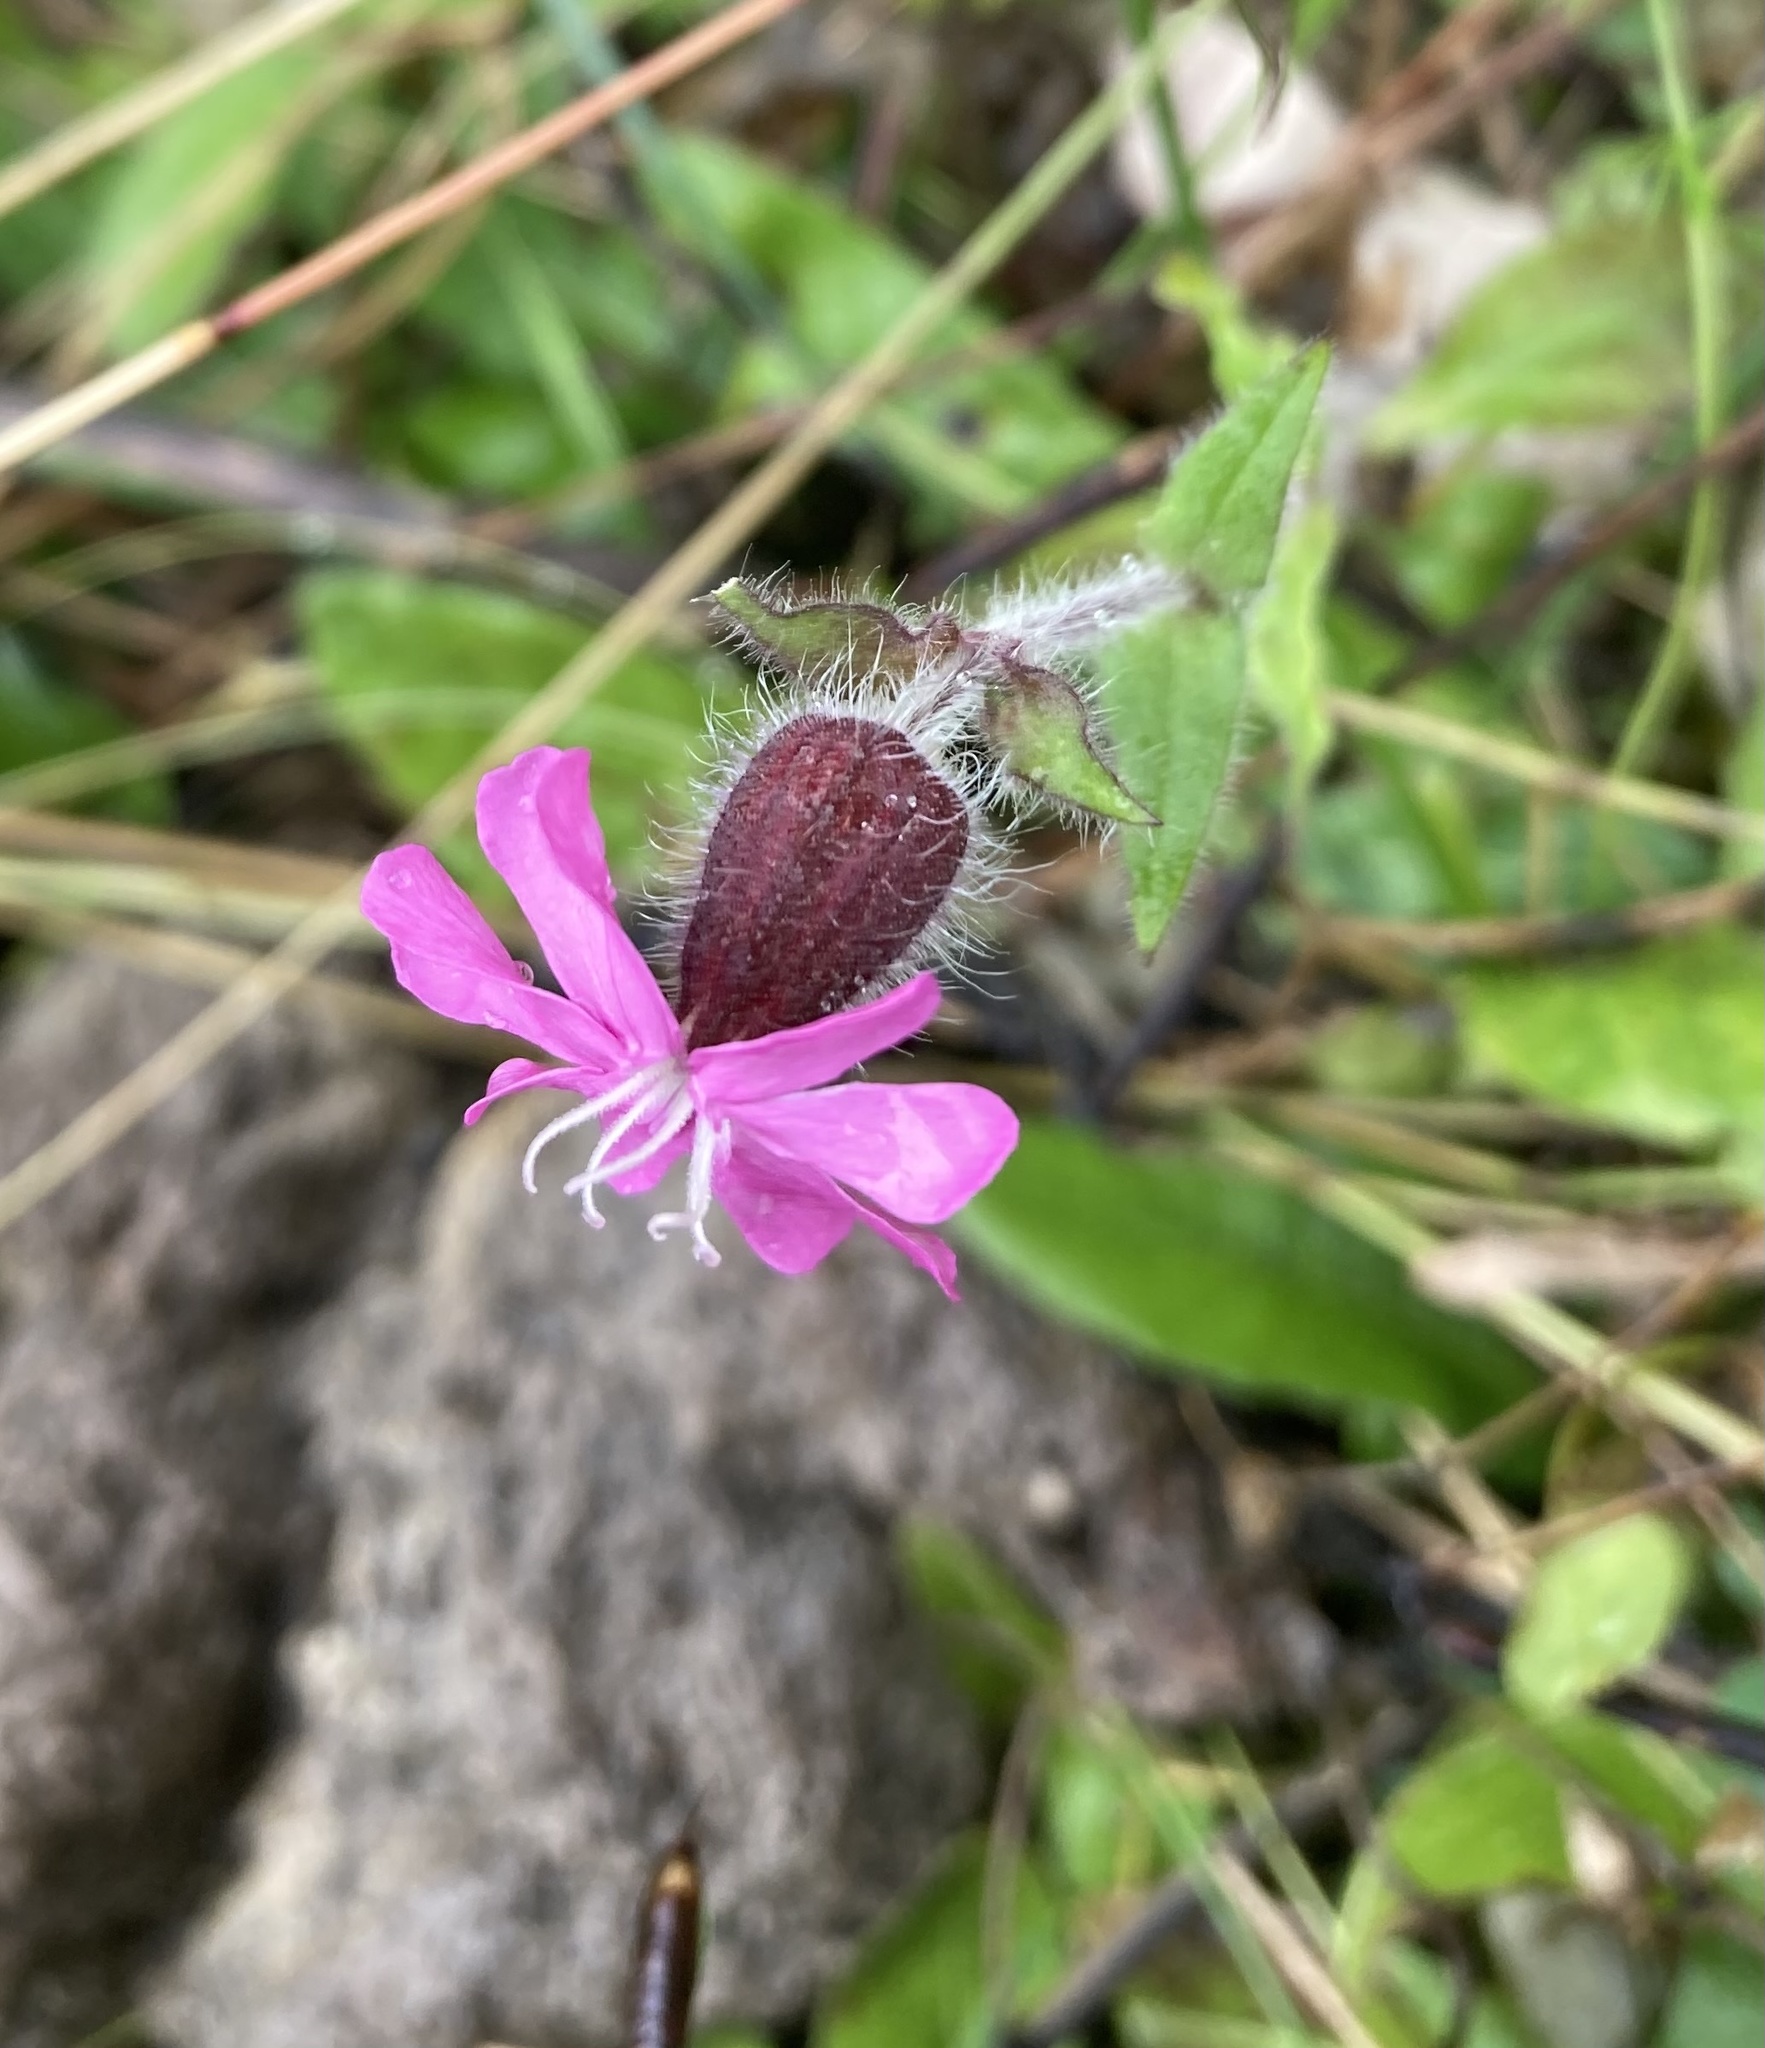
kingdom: Plantae
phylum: Tracheophyta
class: Magnoliopsida
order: Caryophyllales
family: Caryophyllaceae
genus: Silene
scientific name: Silene dioica
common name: Red campion
